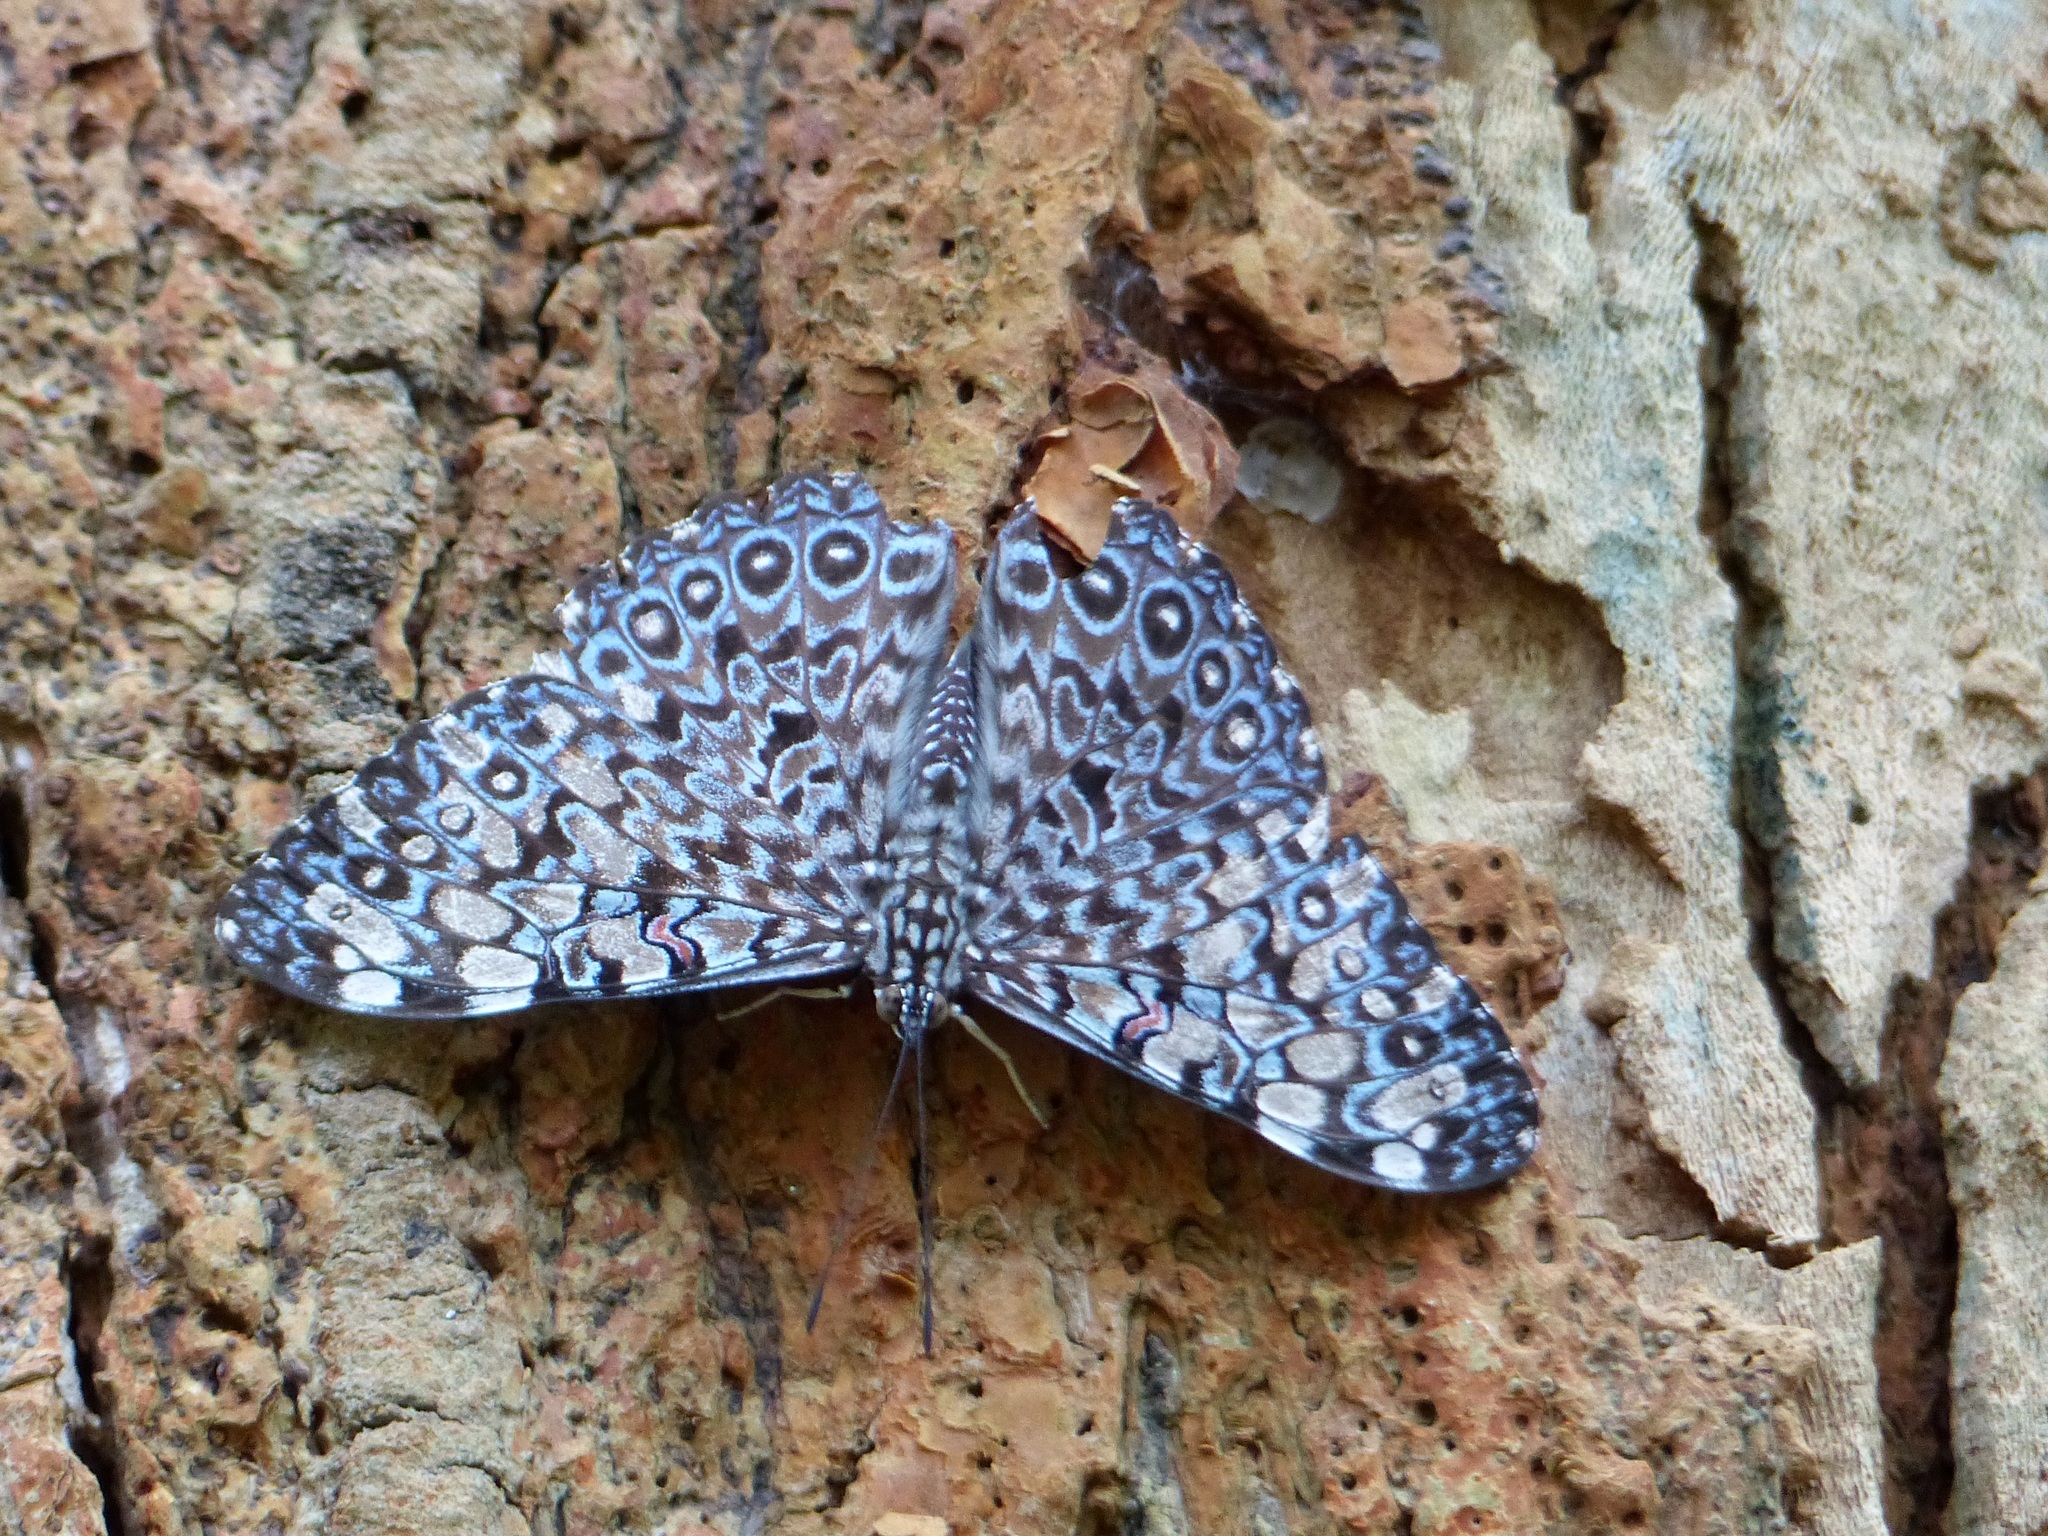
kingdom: Animalia
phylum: Arthropoda
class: Insecta
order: Lepidoptera
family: Nymphalidae
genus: Hamadryas
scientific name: Hamadryas feronia
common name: Variable cracker
